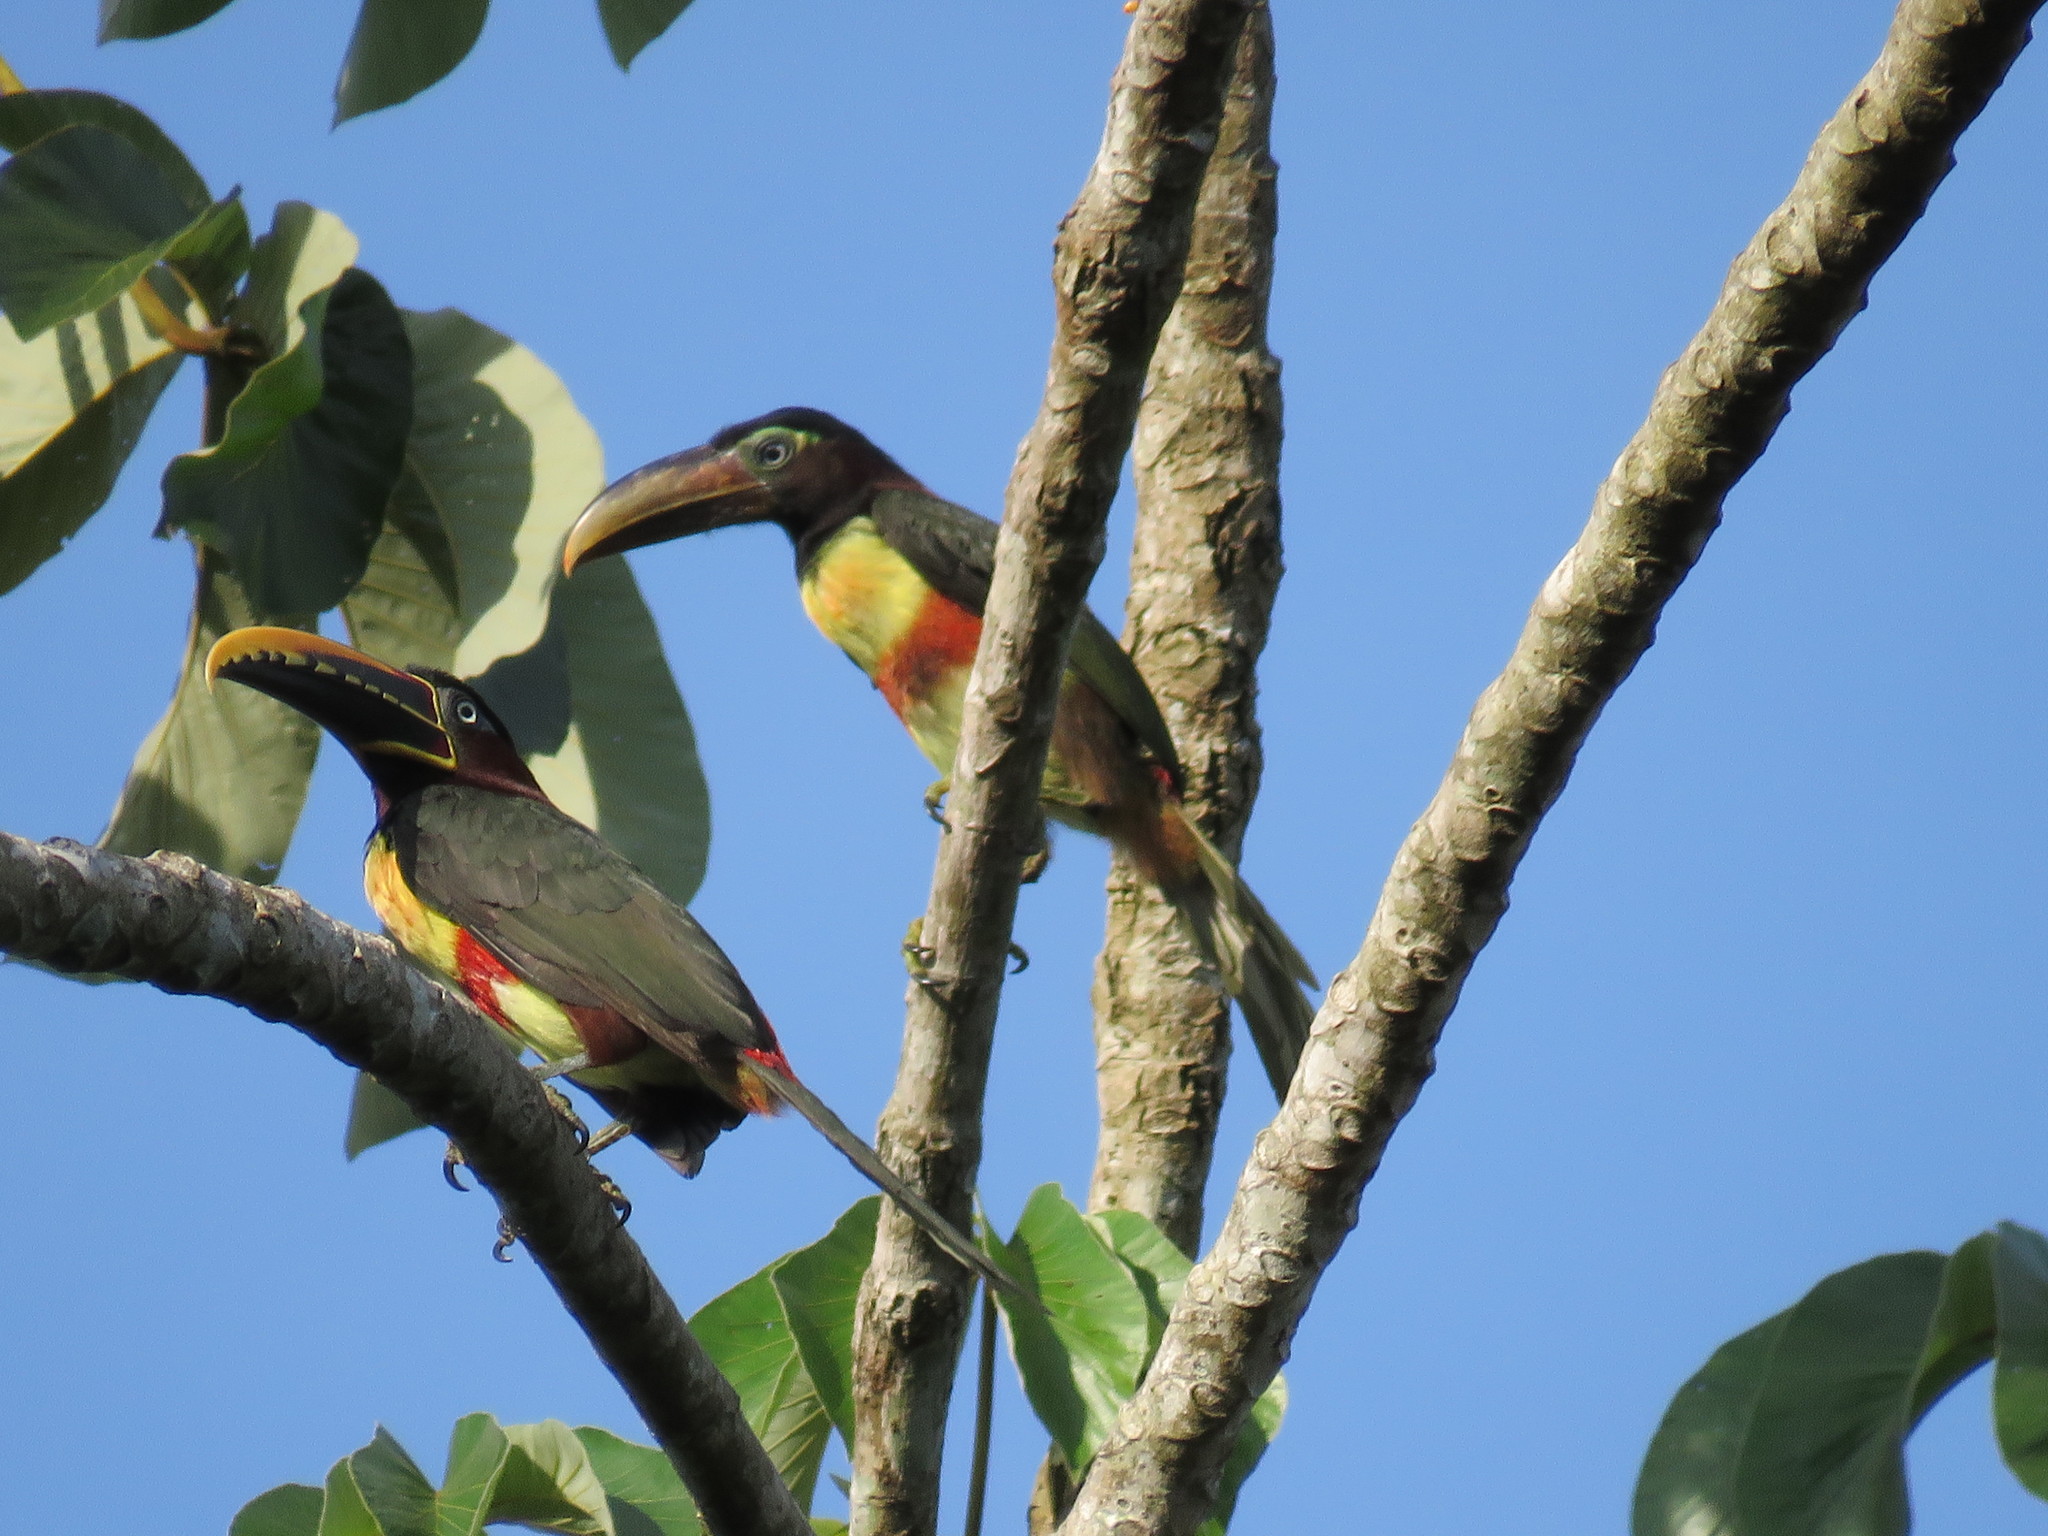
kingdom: Animalia
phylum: Chordata
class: Aves
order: Piciformes
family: Ramphastidae
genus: Pteroglossus
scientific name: Pteroglossus castanotis
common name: Chestnut-eared aracari
